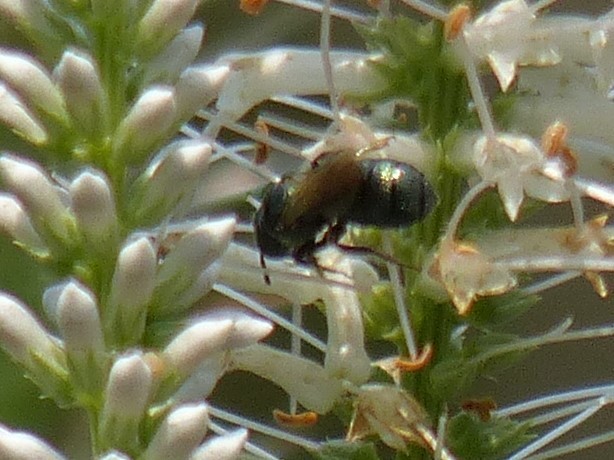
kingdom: Animalia
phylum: Arthropoda
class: Insecta
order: Hymenoptera
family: Apidae
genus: Zadontomerus
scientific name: Zadontomerus
